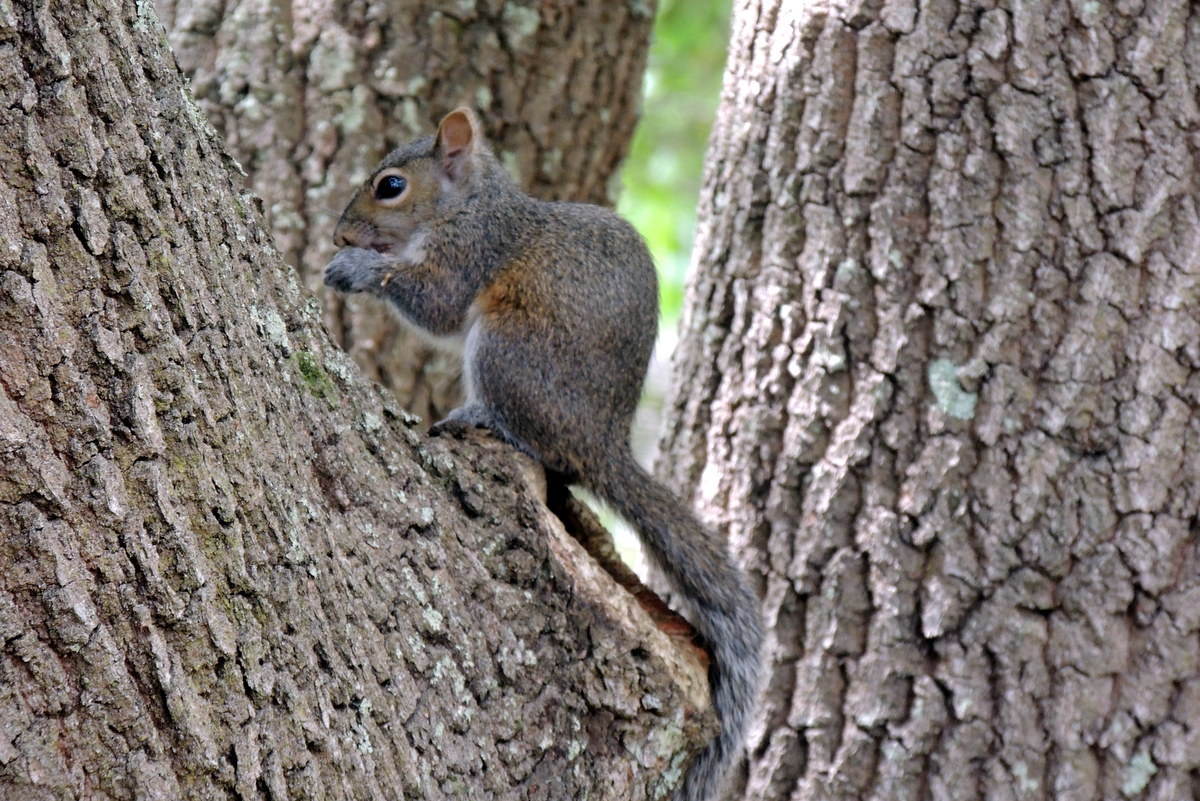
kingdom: Animalia
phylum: Chordata
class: Mammalia
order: Rodentia
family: Sciuridae
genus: Sciurus
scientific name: Sciurus carolinensis
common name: Eastern gray squirrel
